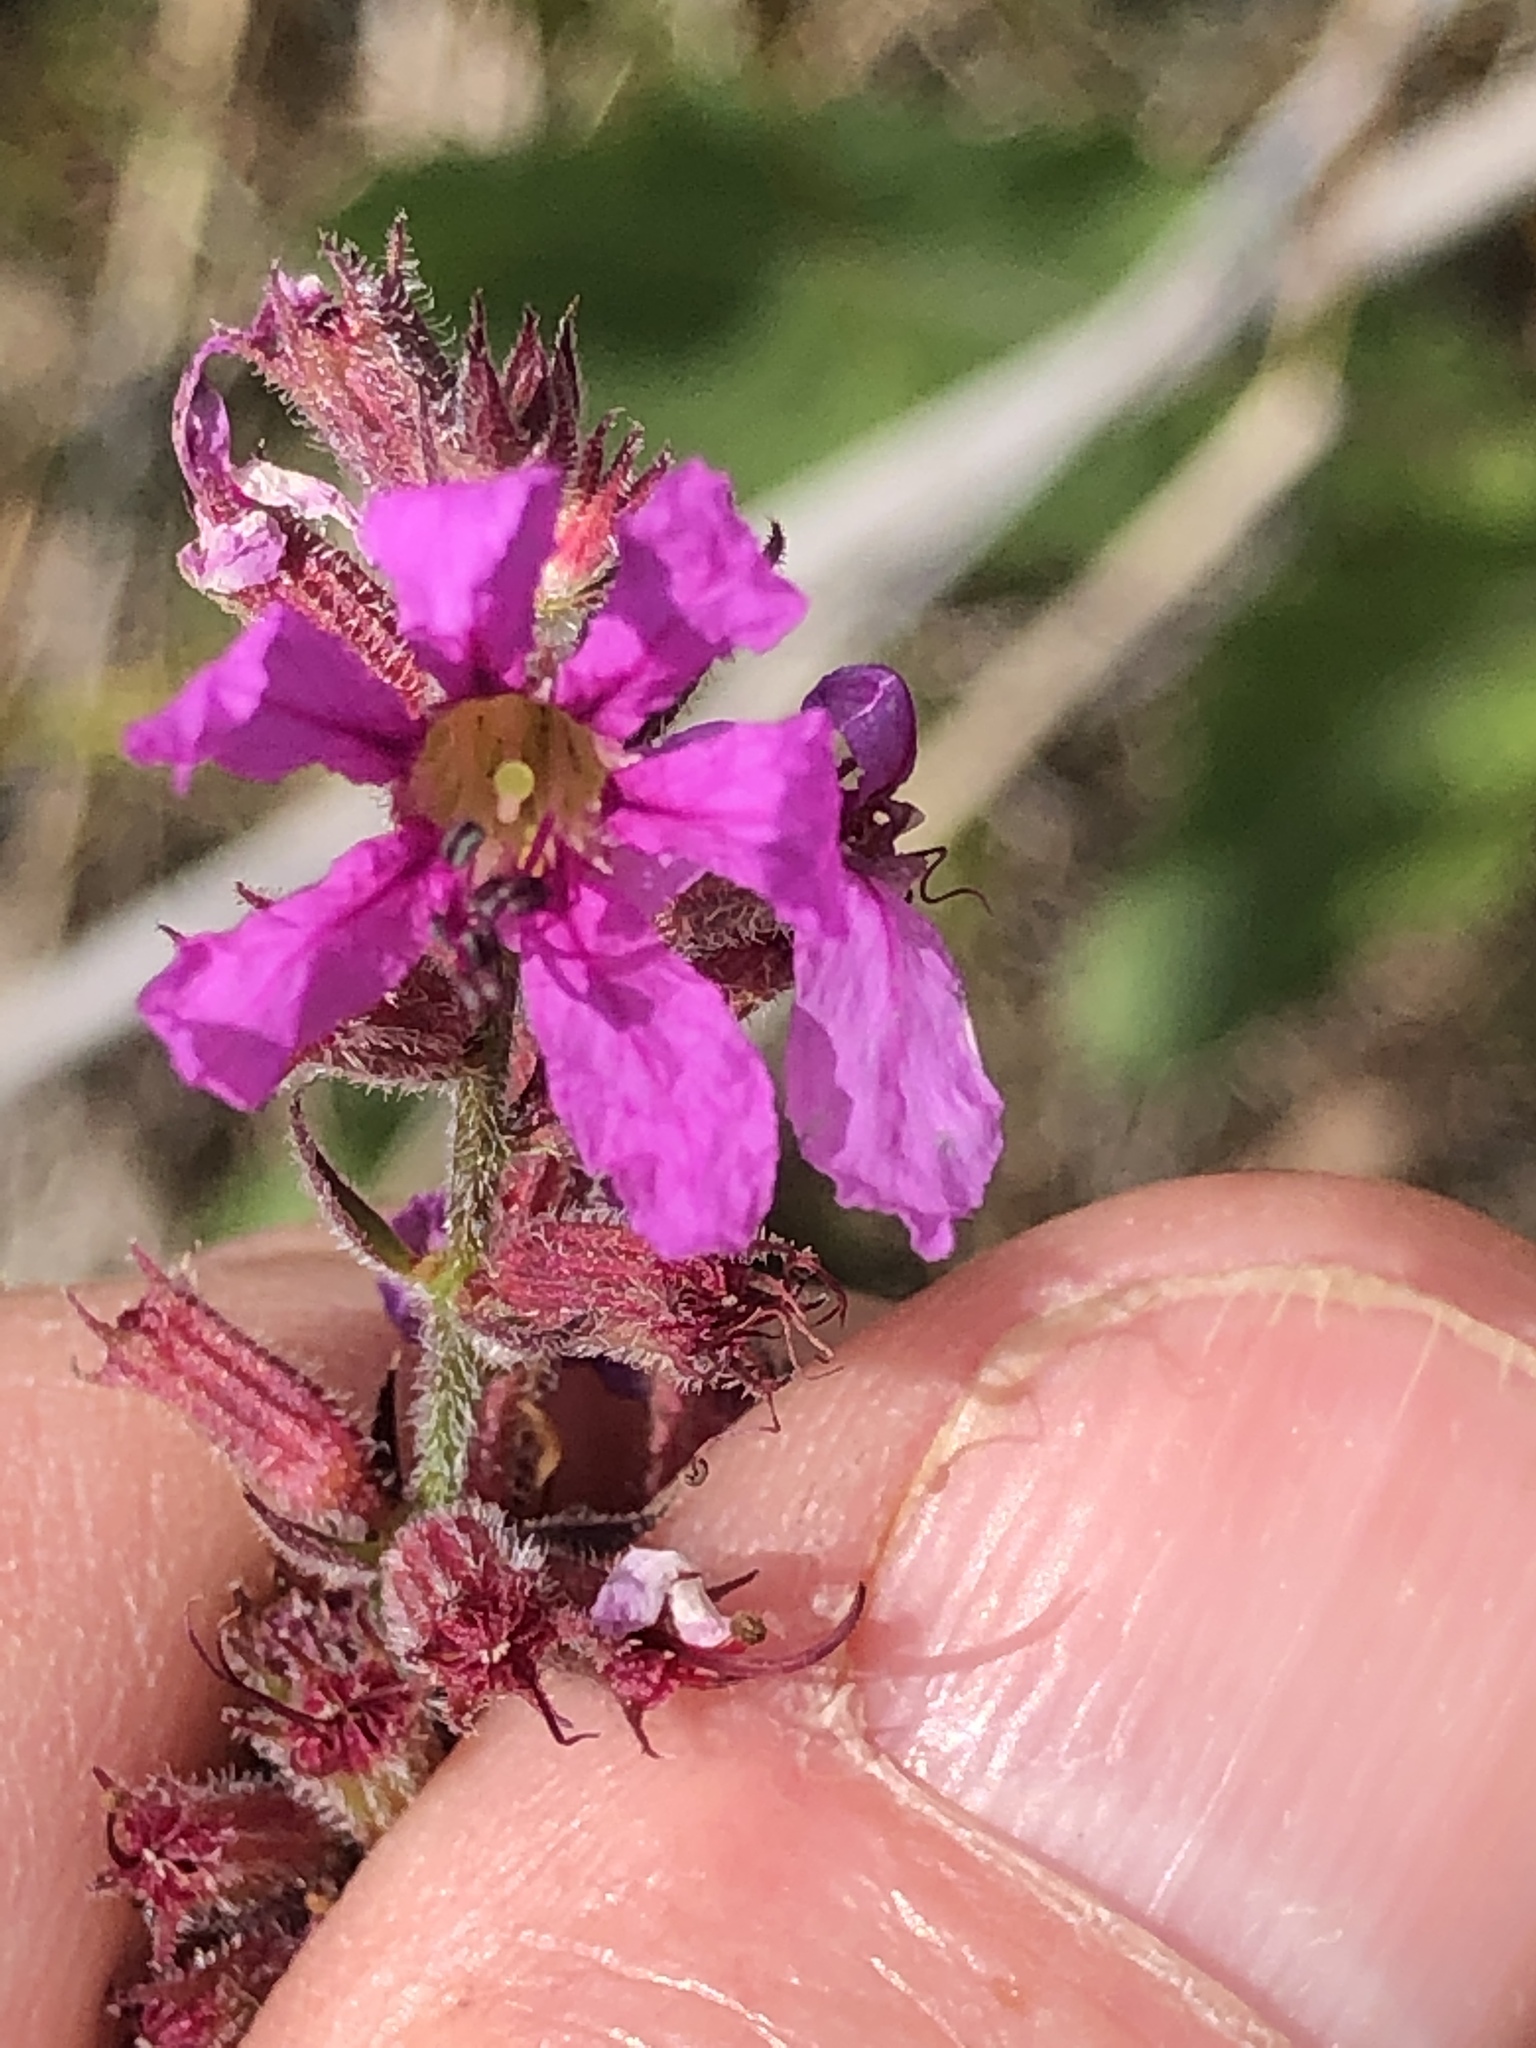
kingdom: Plantae
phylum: Tracheophyta
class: Magnoliopsida
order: Myrtales
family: Lythraceae
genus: Lythrum
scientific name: Lythrum salicaria
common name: Purple loosestrife
